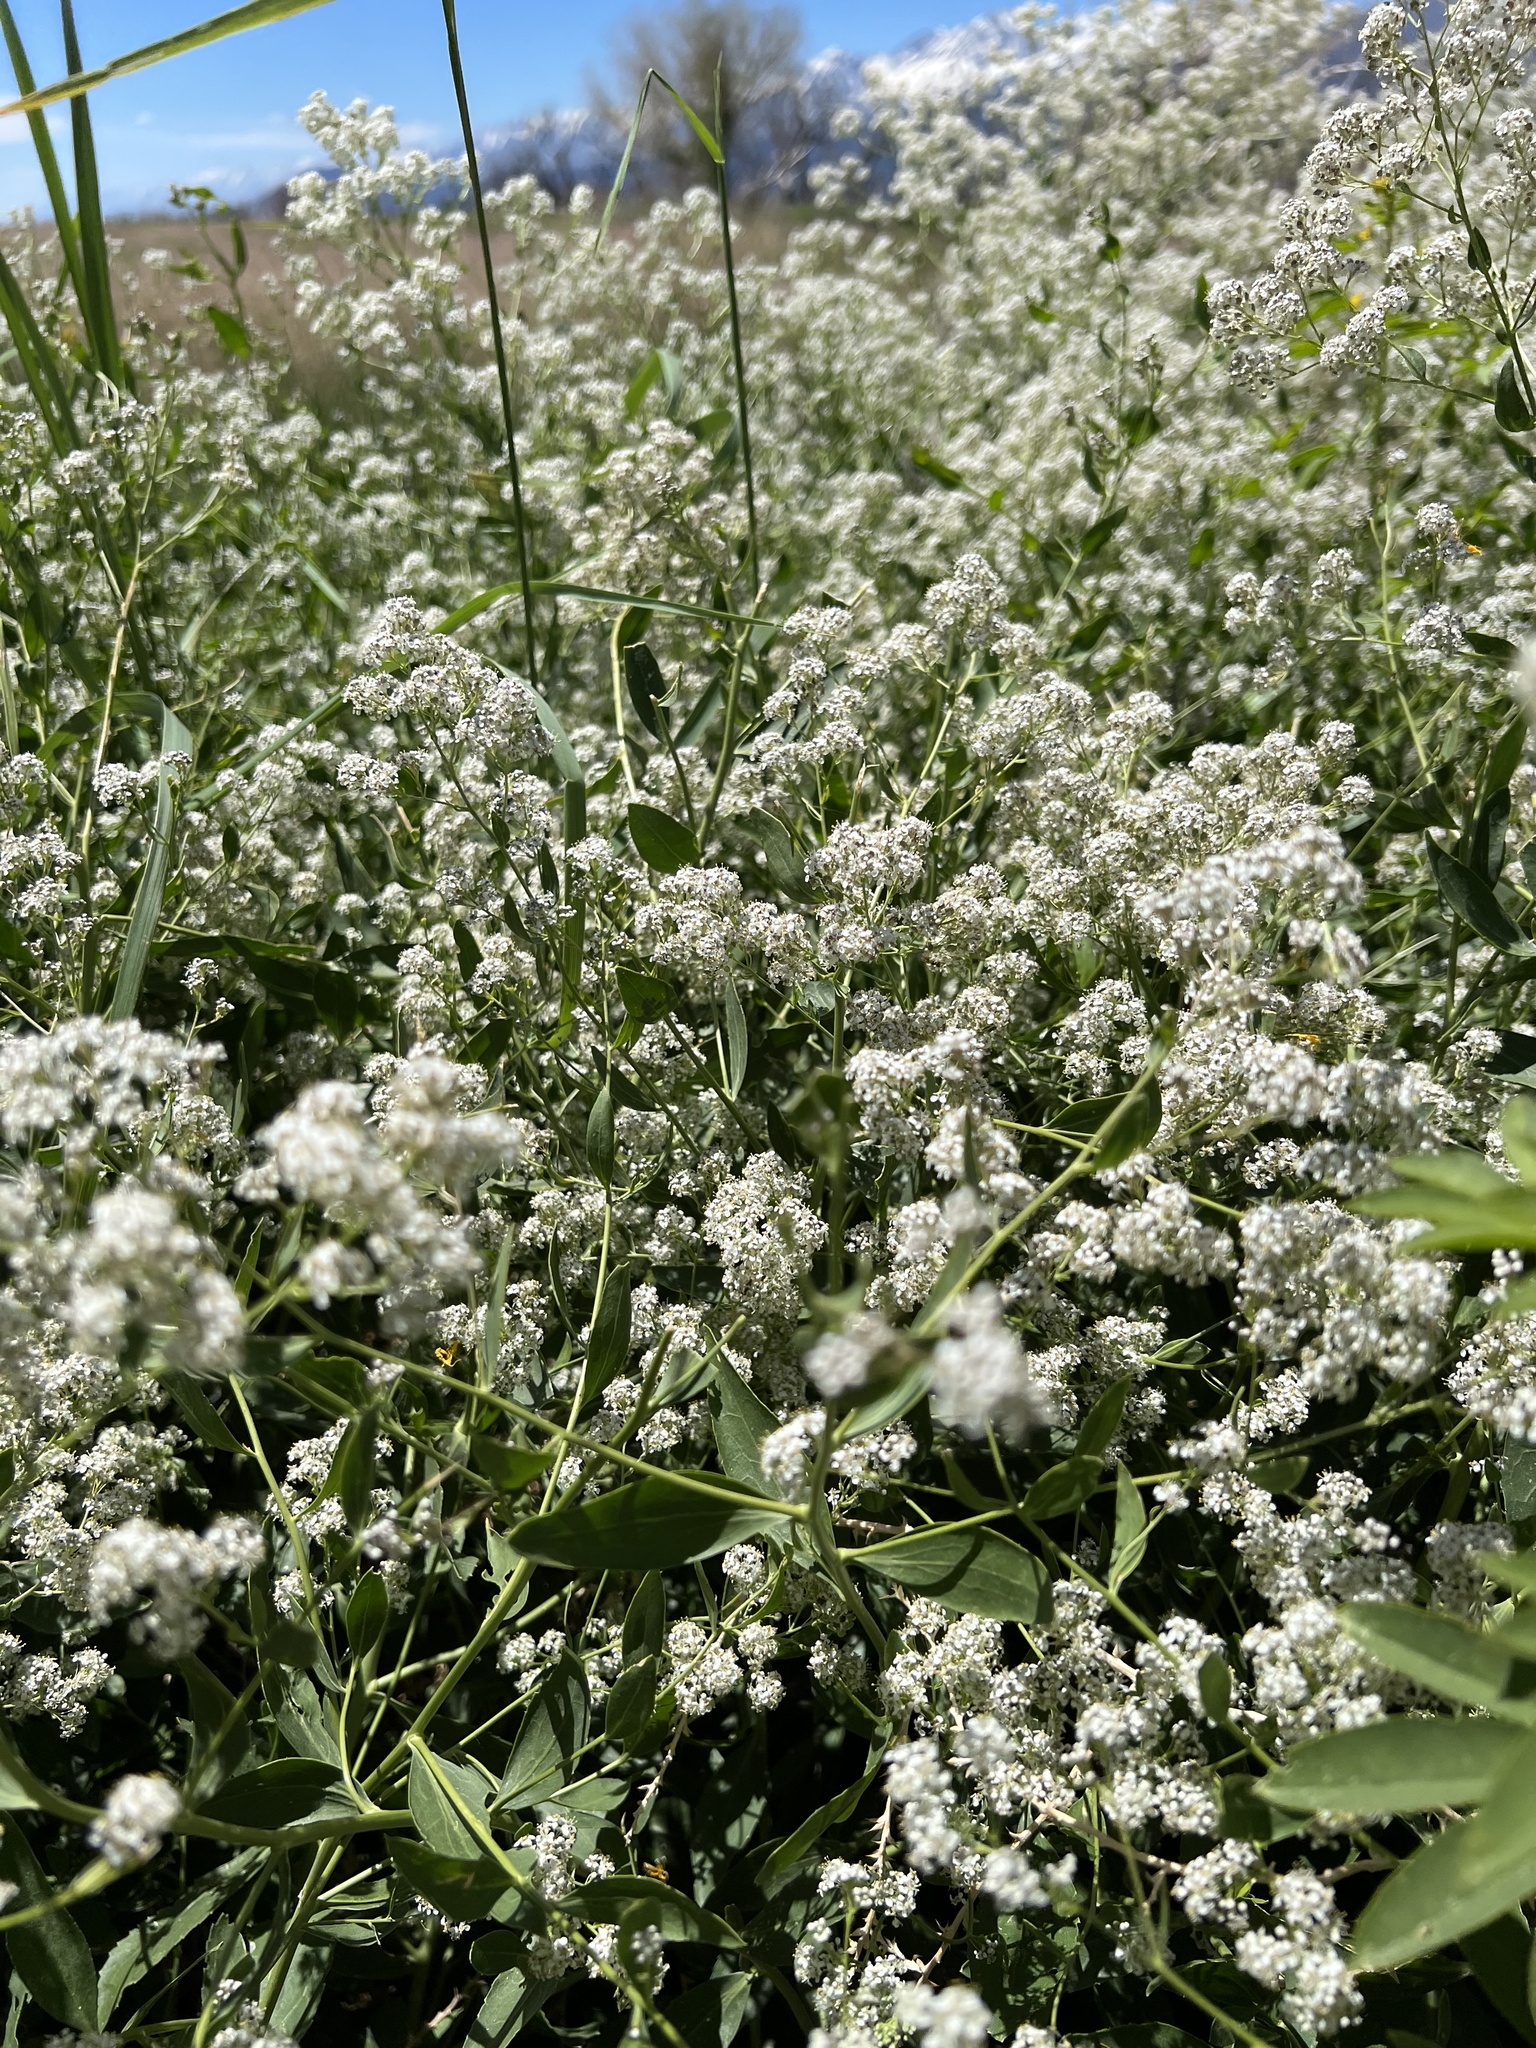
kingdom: Plantae
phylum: Tracheophyta
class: Magnoliopsida
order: Brassicales
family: Brassicaceae
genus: Lepidium
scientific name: Lepidium latifolium
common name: Dittander
